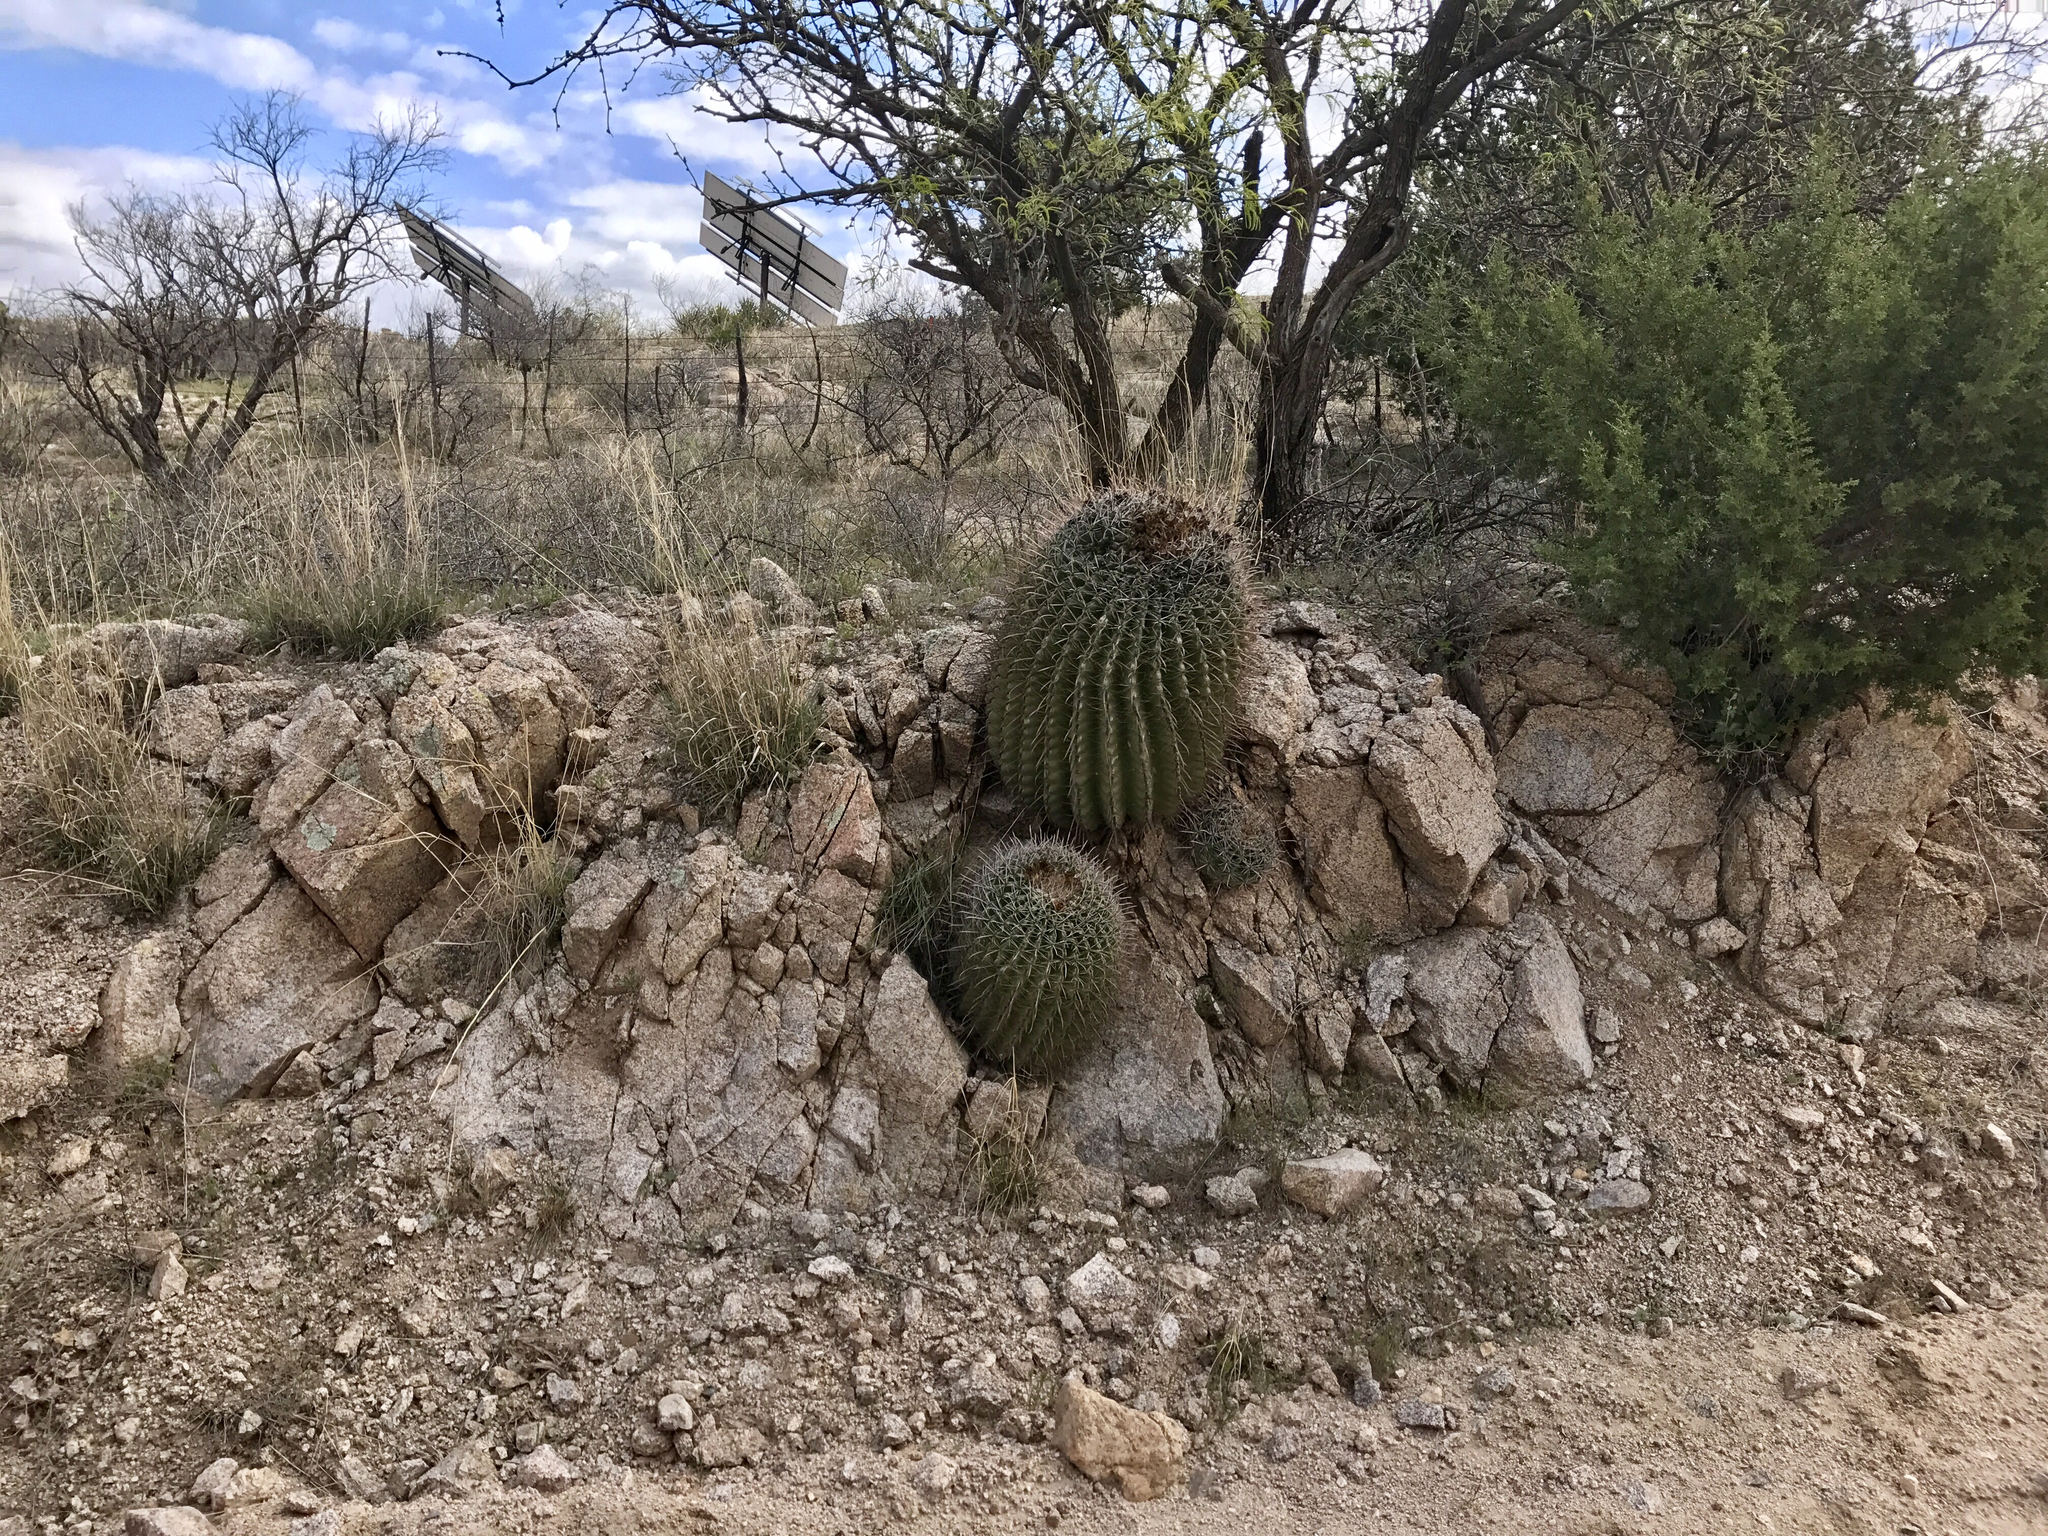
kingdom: Plantae
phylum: Tracheophyta
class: Magnoliopsida
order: Caryophyllales
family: Cactaceae
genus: Ferocactus
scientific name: Ferocactus wislizeni
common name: Candy barrel cactus
